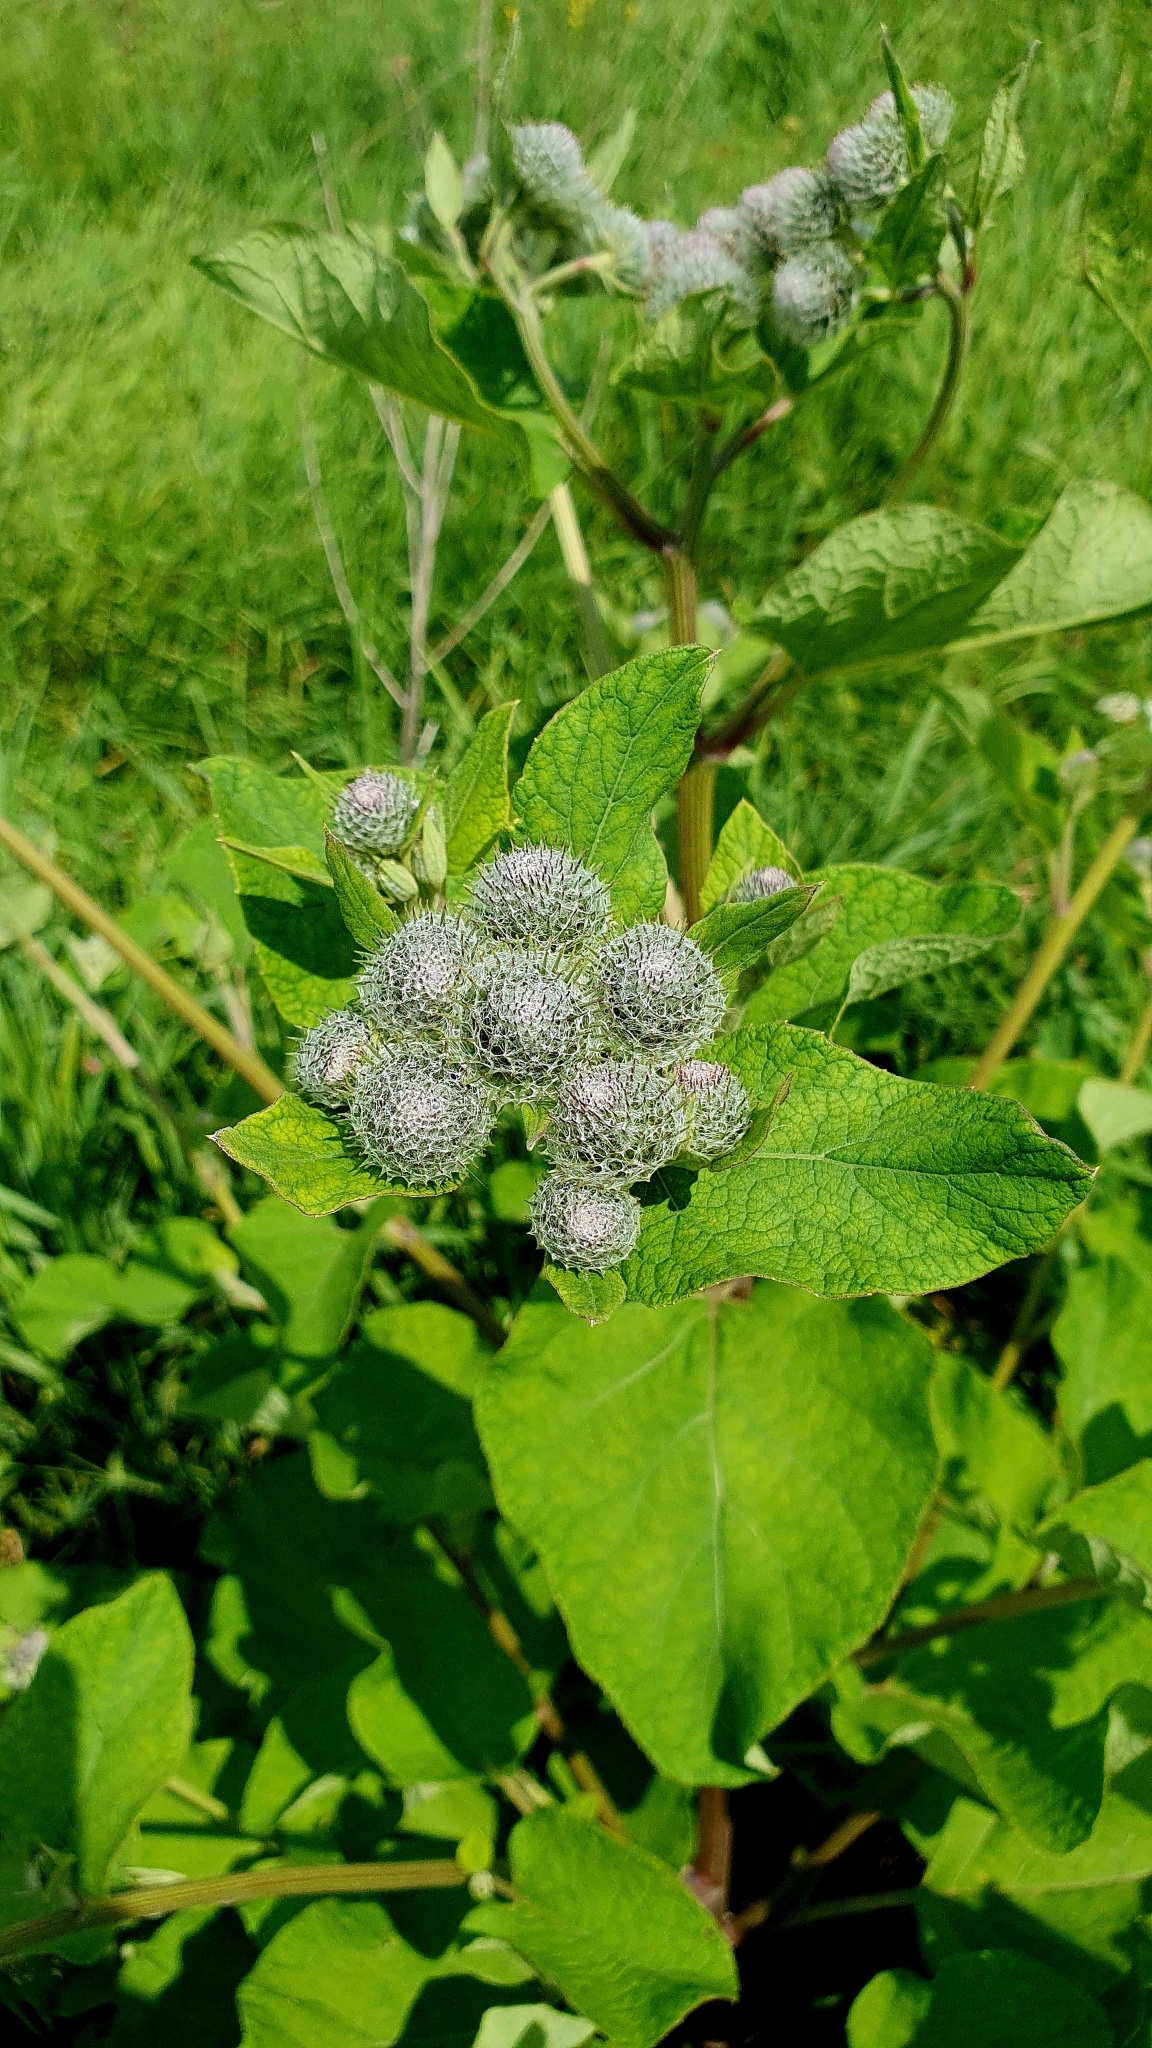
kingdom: Plantae
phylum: Tracheophyta
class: Magnoliopsida
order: Asterales
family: Asteraceae
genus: Arctium
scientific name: Arctium tomentosum
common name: Woolly burdock
